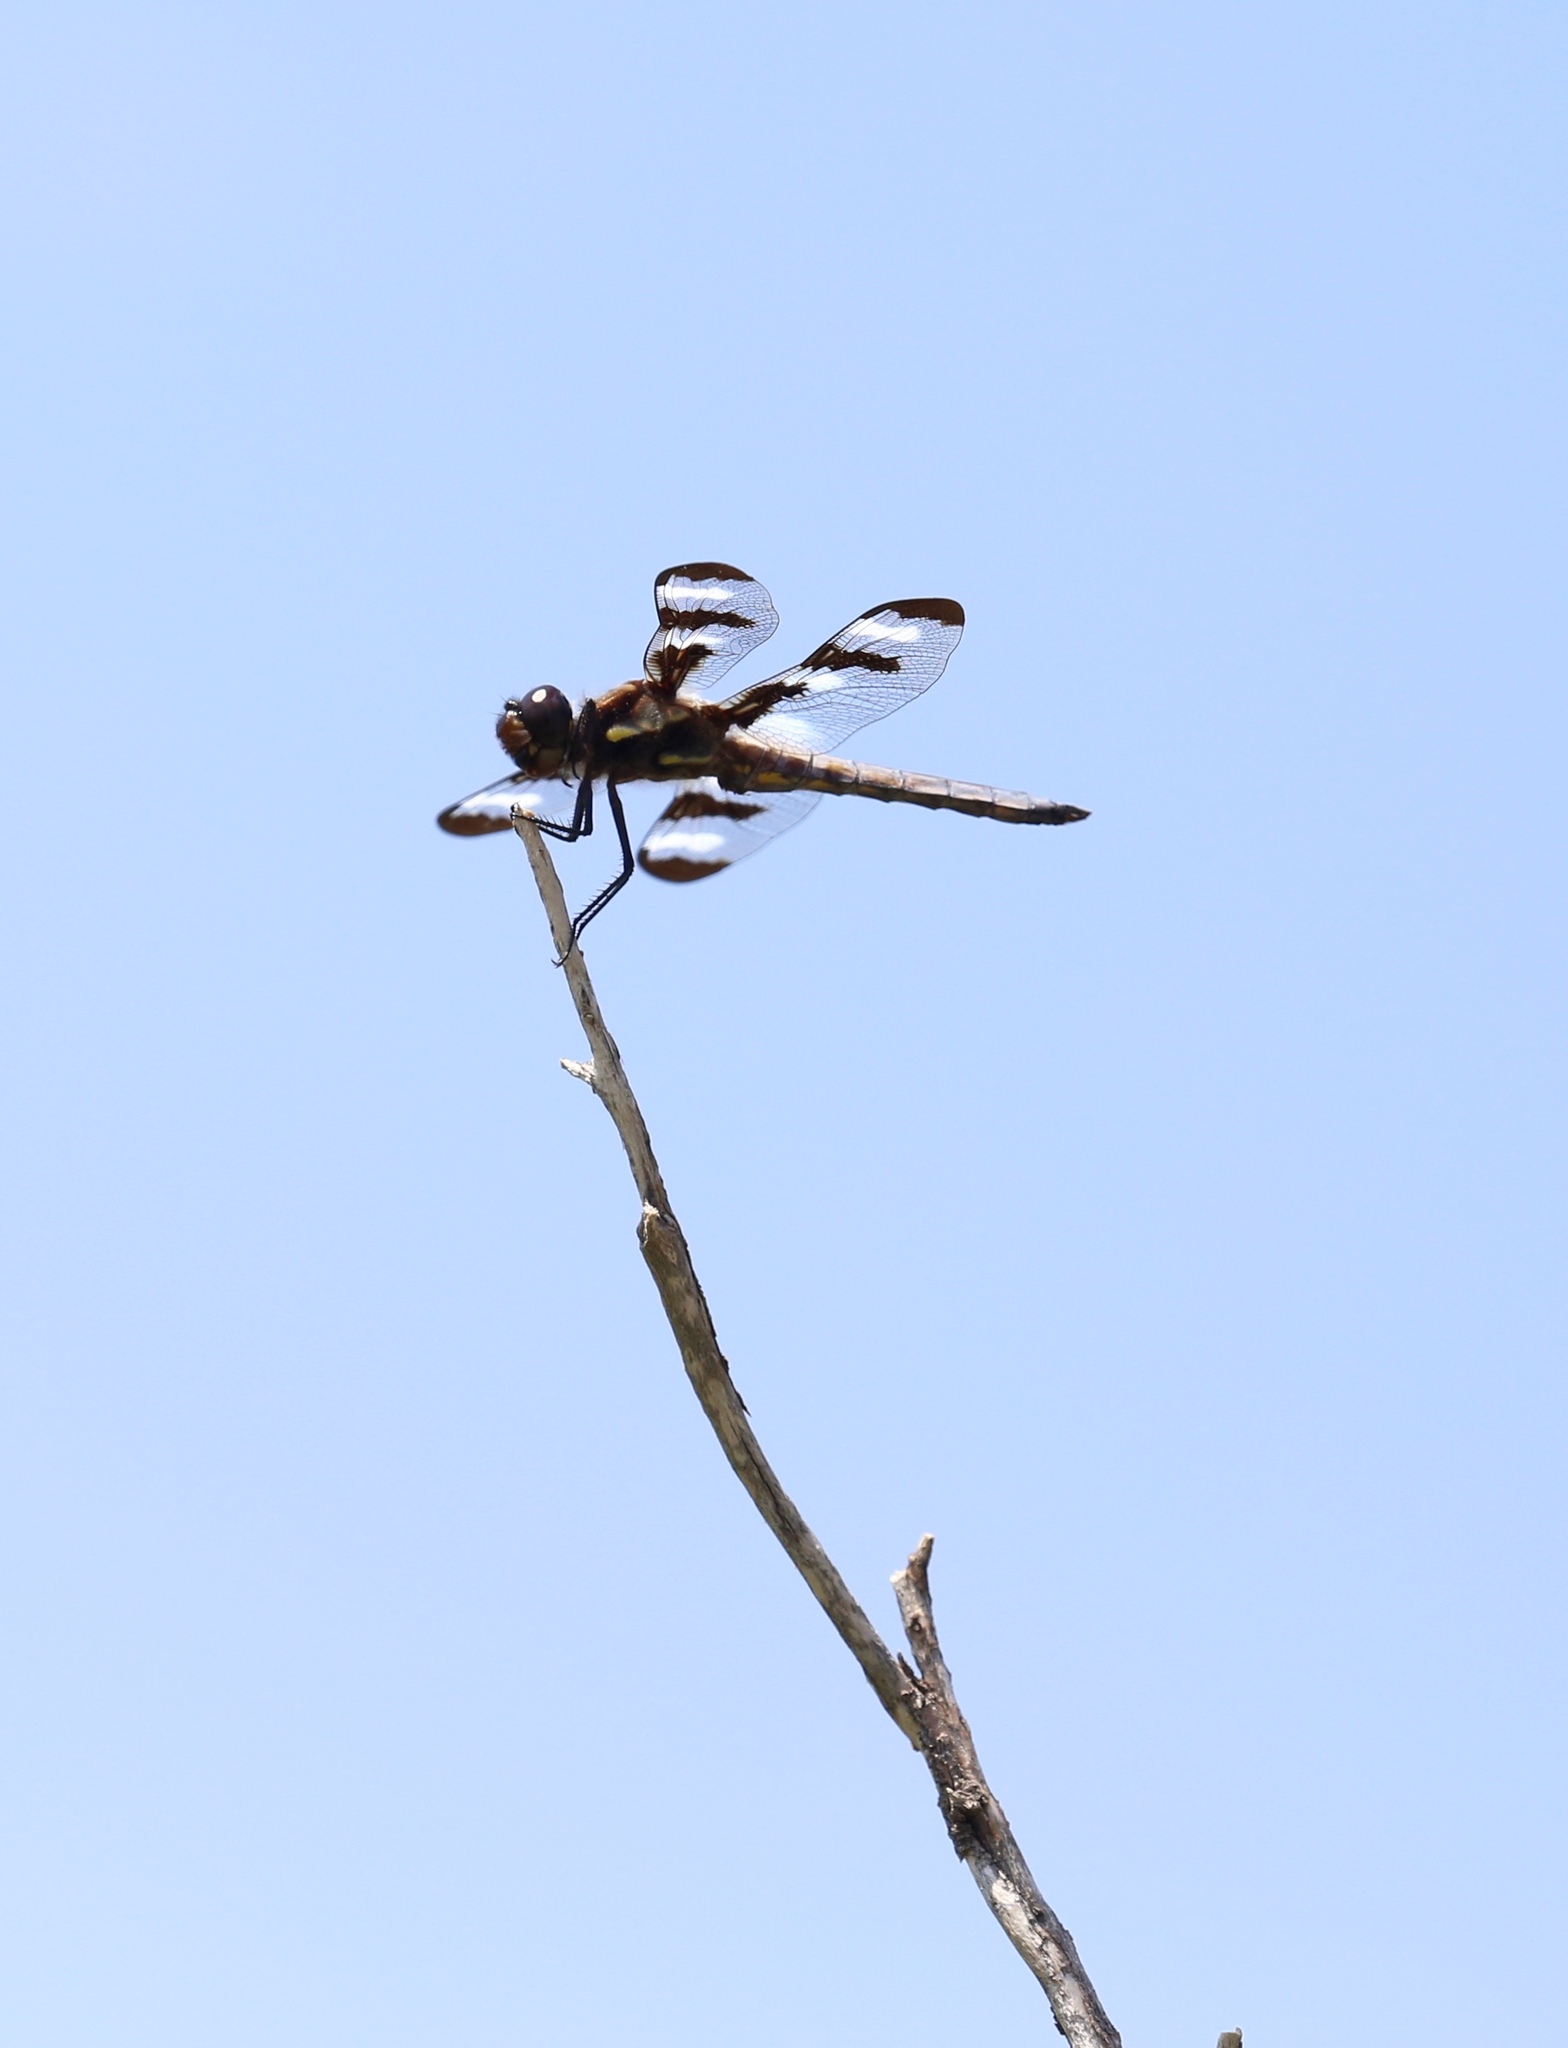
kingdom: Animalia
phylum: Arthropoda
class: Insecta
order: Odonata
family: Libellulidae
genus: Libellula
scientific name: Libellula pulchella
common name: Twelve-spotted skimmer
